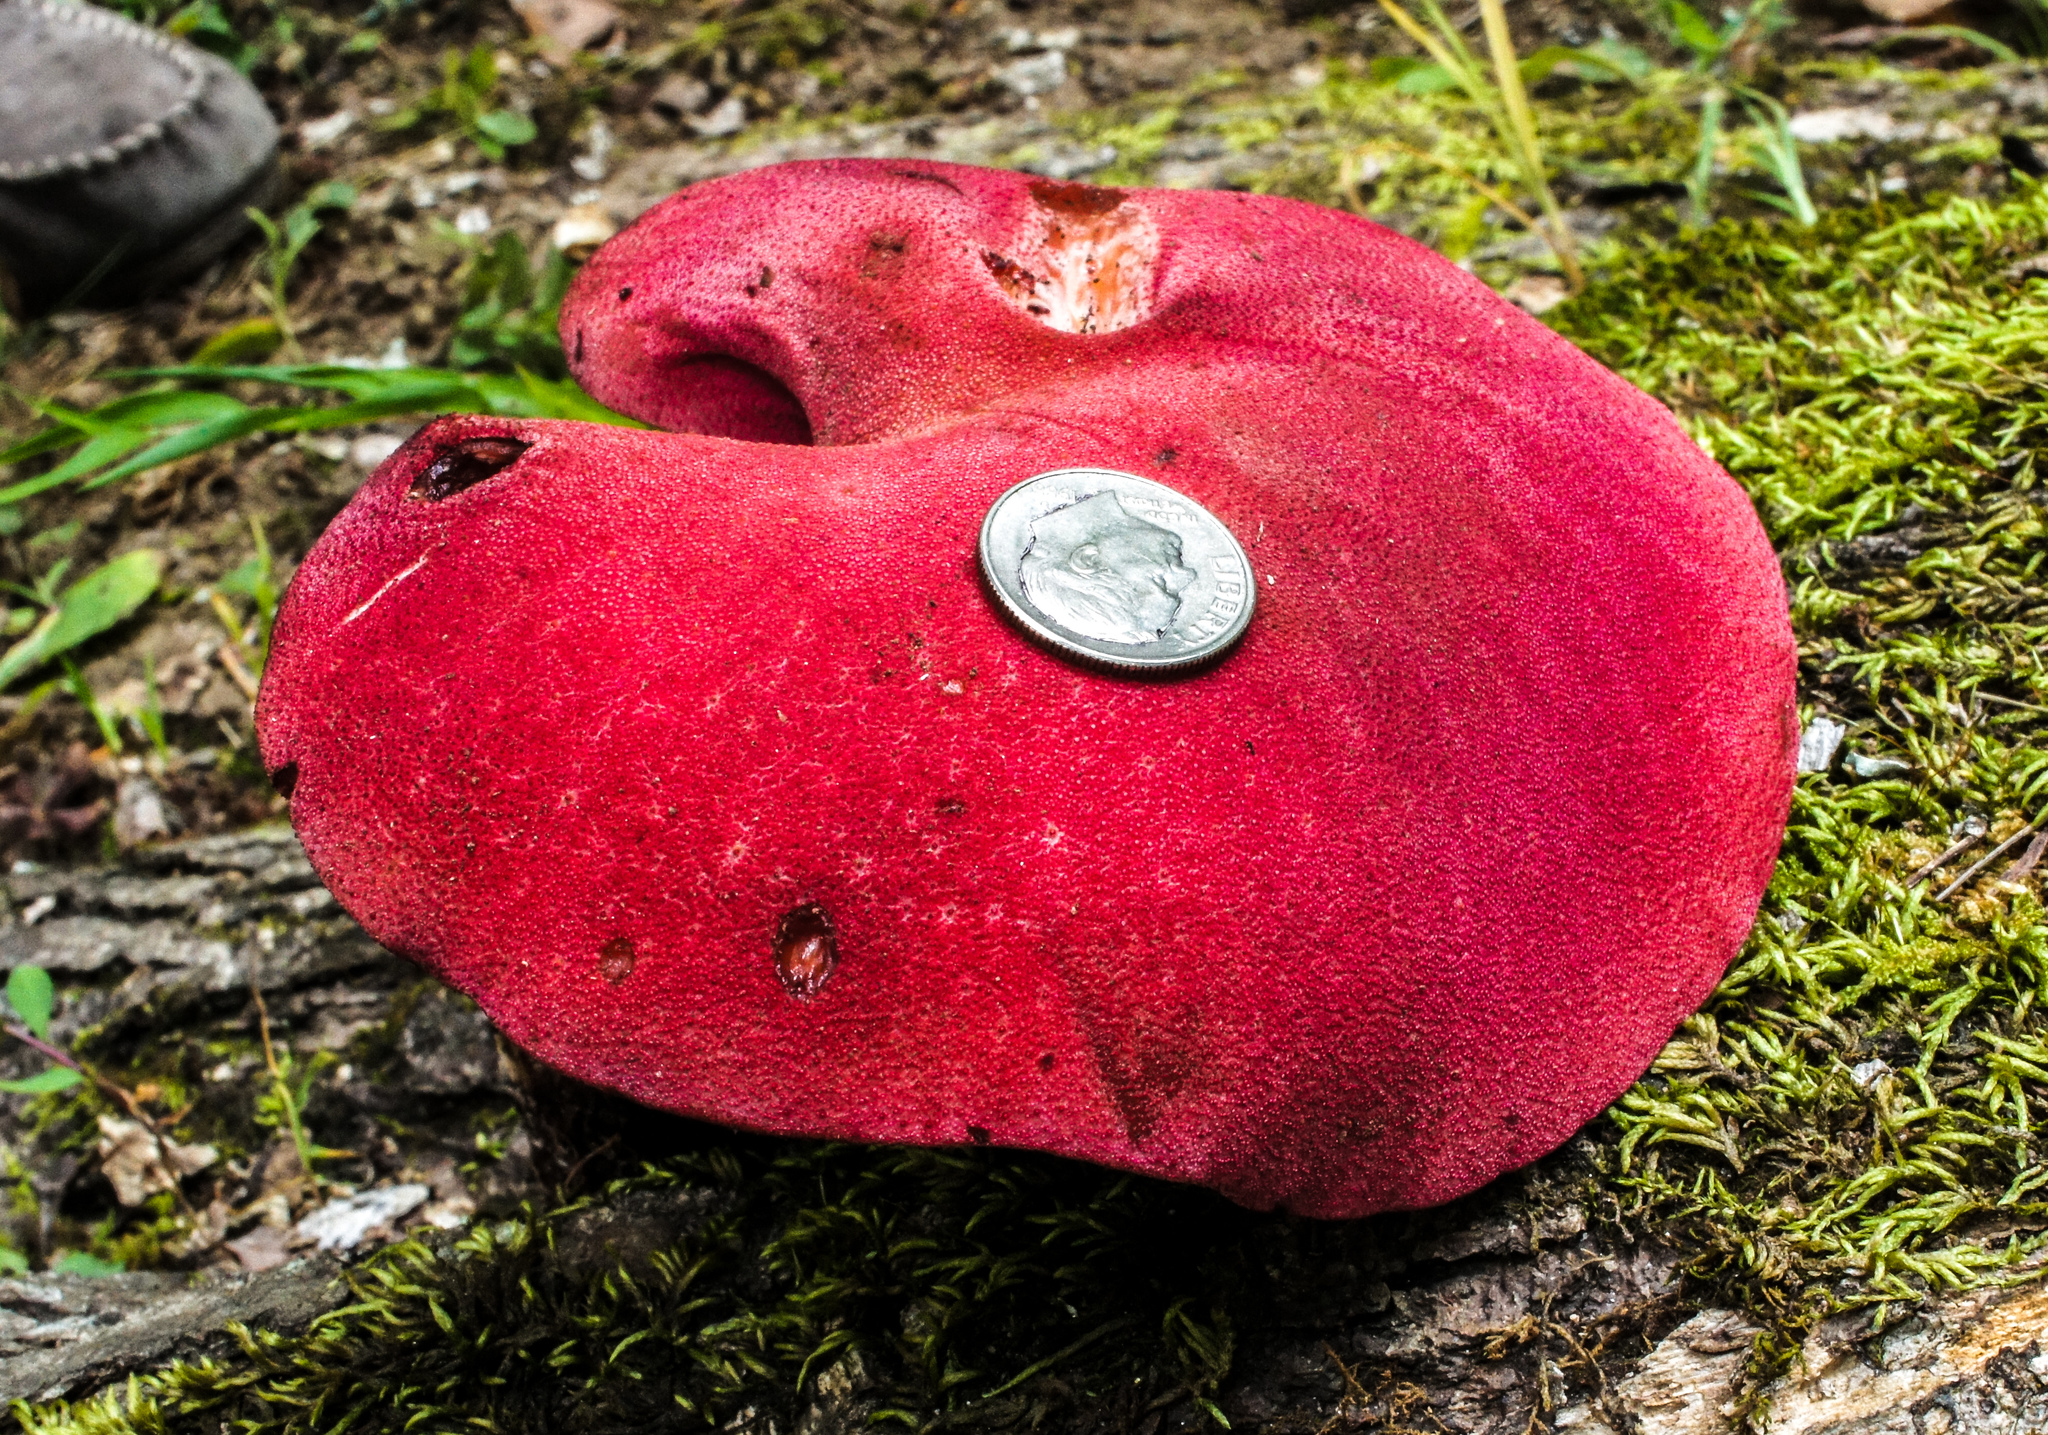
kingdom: Fungi
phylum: Basidiomycota
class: Agaricomycetes
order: Agaricales
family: Fistulinaceae
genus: Fistulina
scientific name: Fistulina hepatica
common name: Beef-steak fungus
